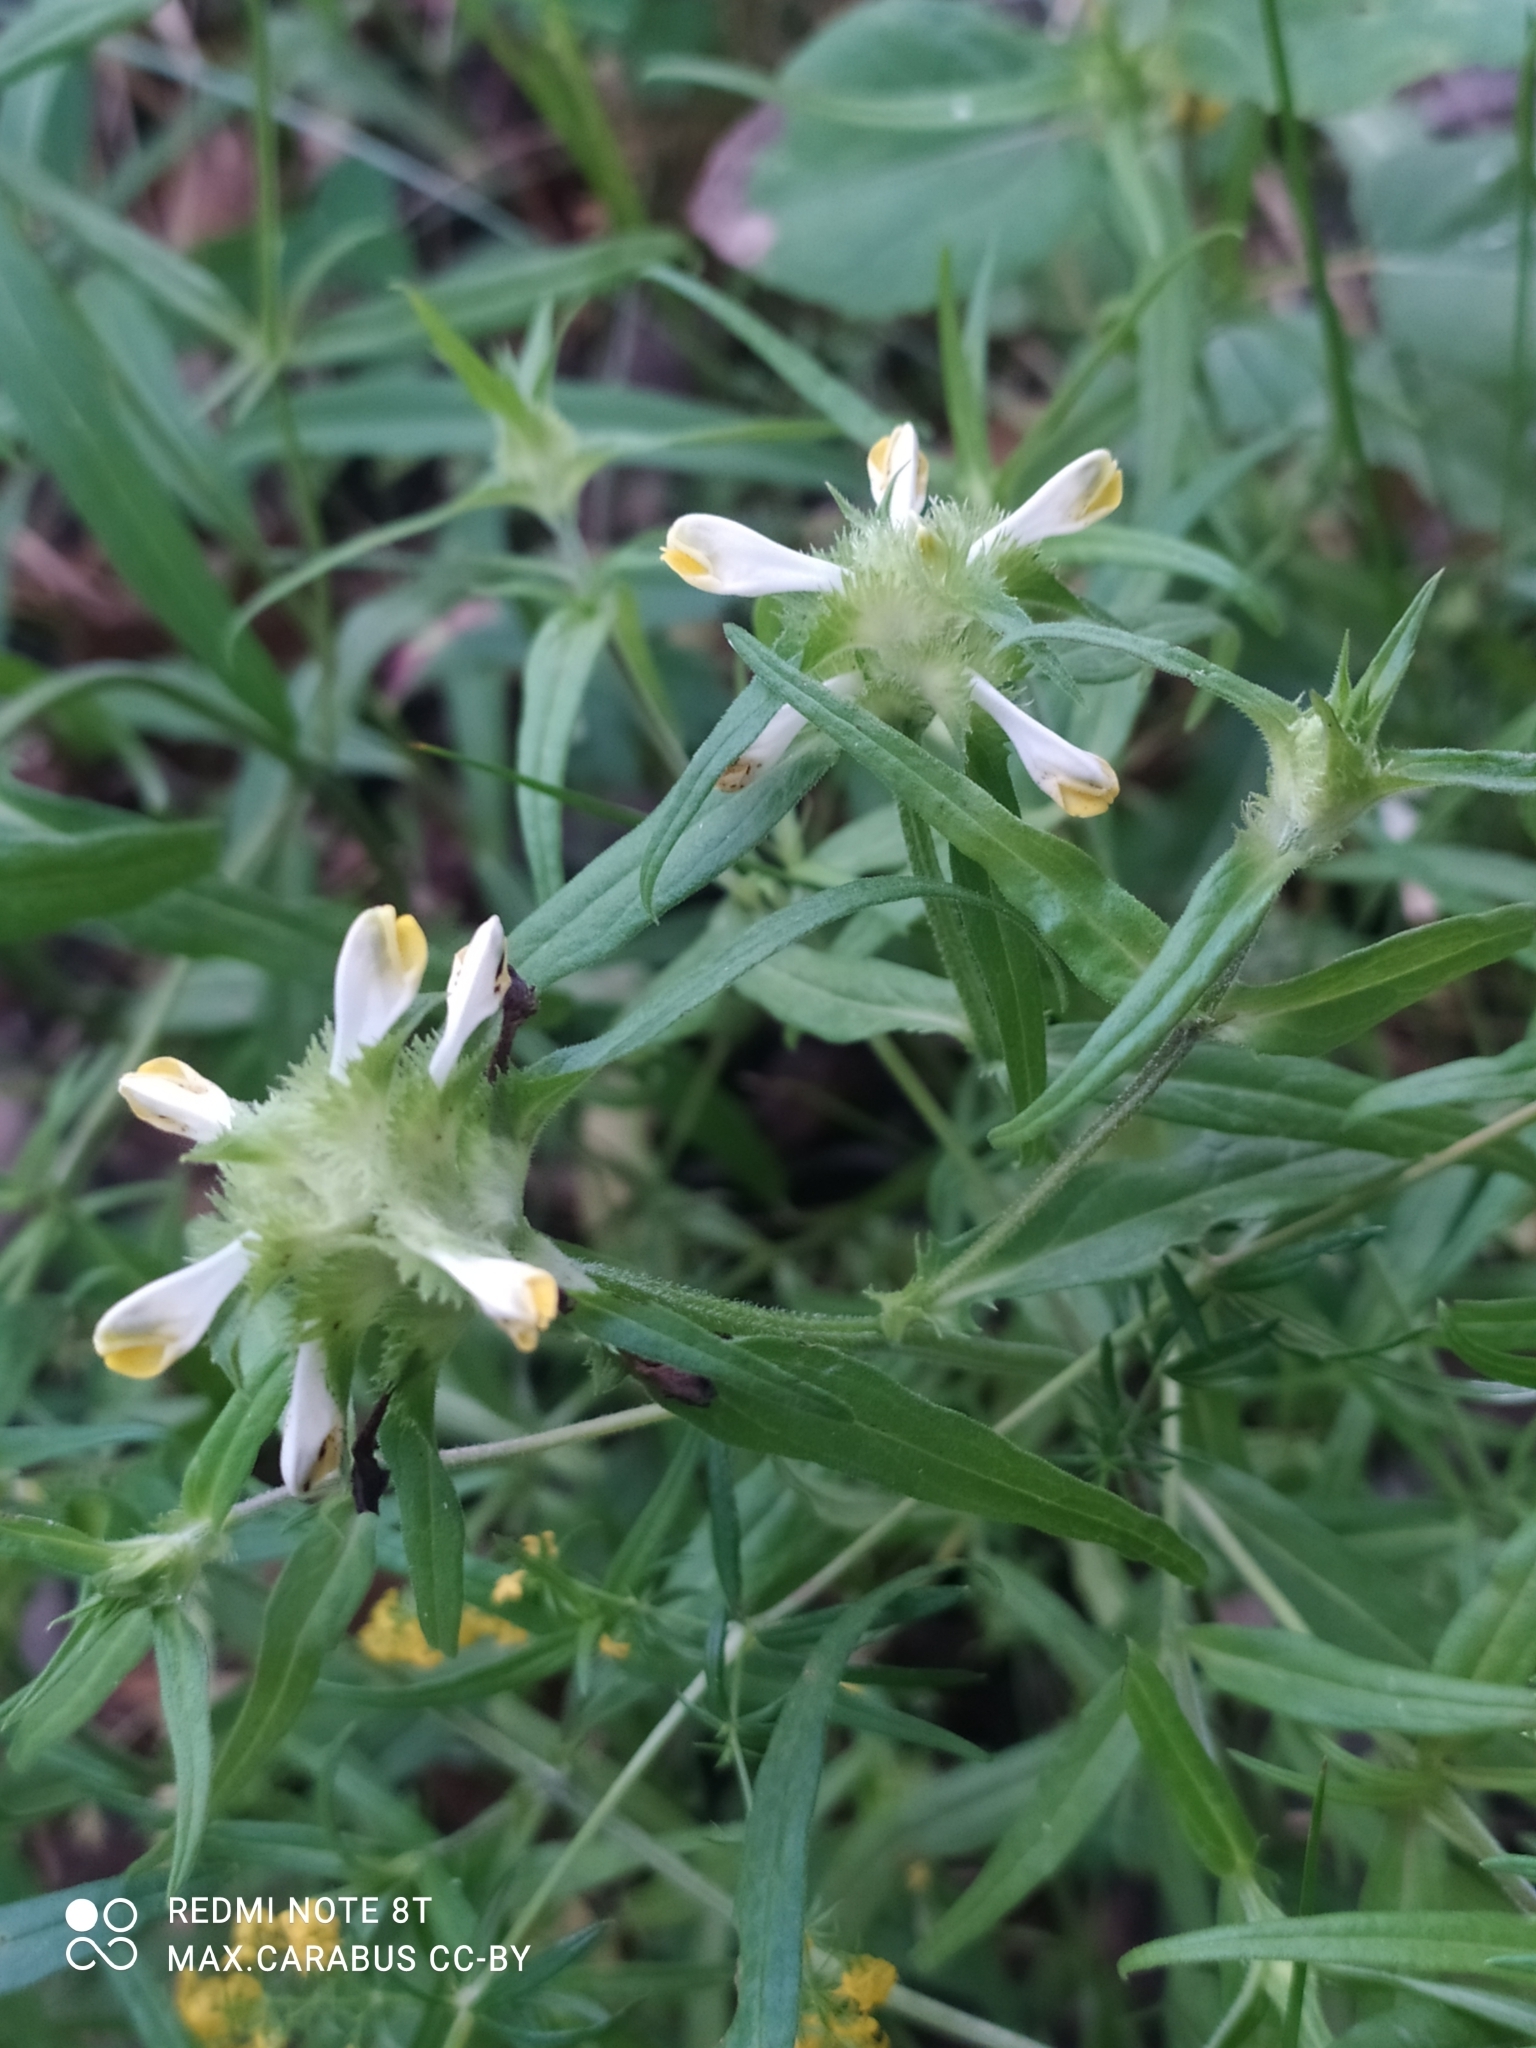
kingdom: Plantae
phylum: Tracheophyta
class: Magnoliopsida
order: Lamiales
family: Orobanchaceae
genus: Melampyrum
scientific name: Melampyrum cristatum
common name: Crested cow-wheat
